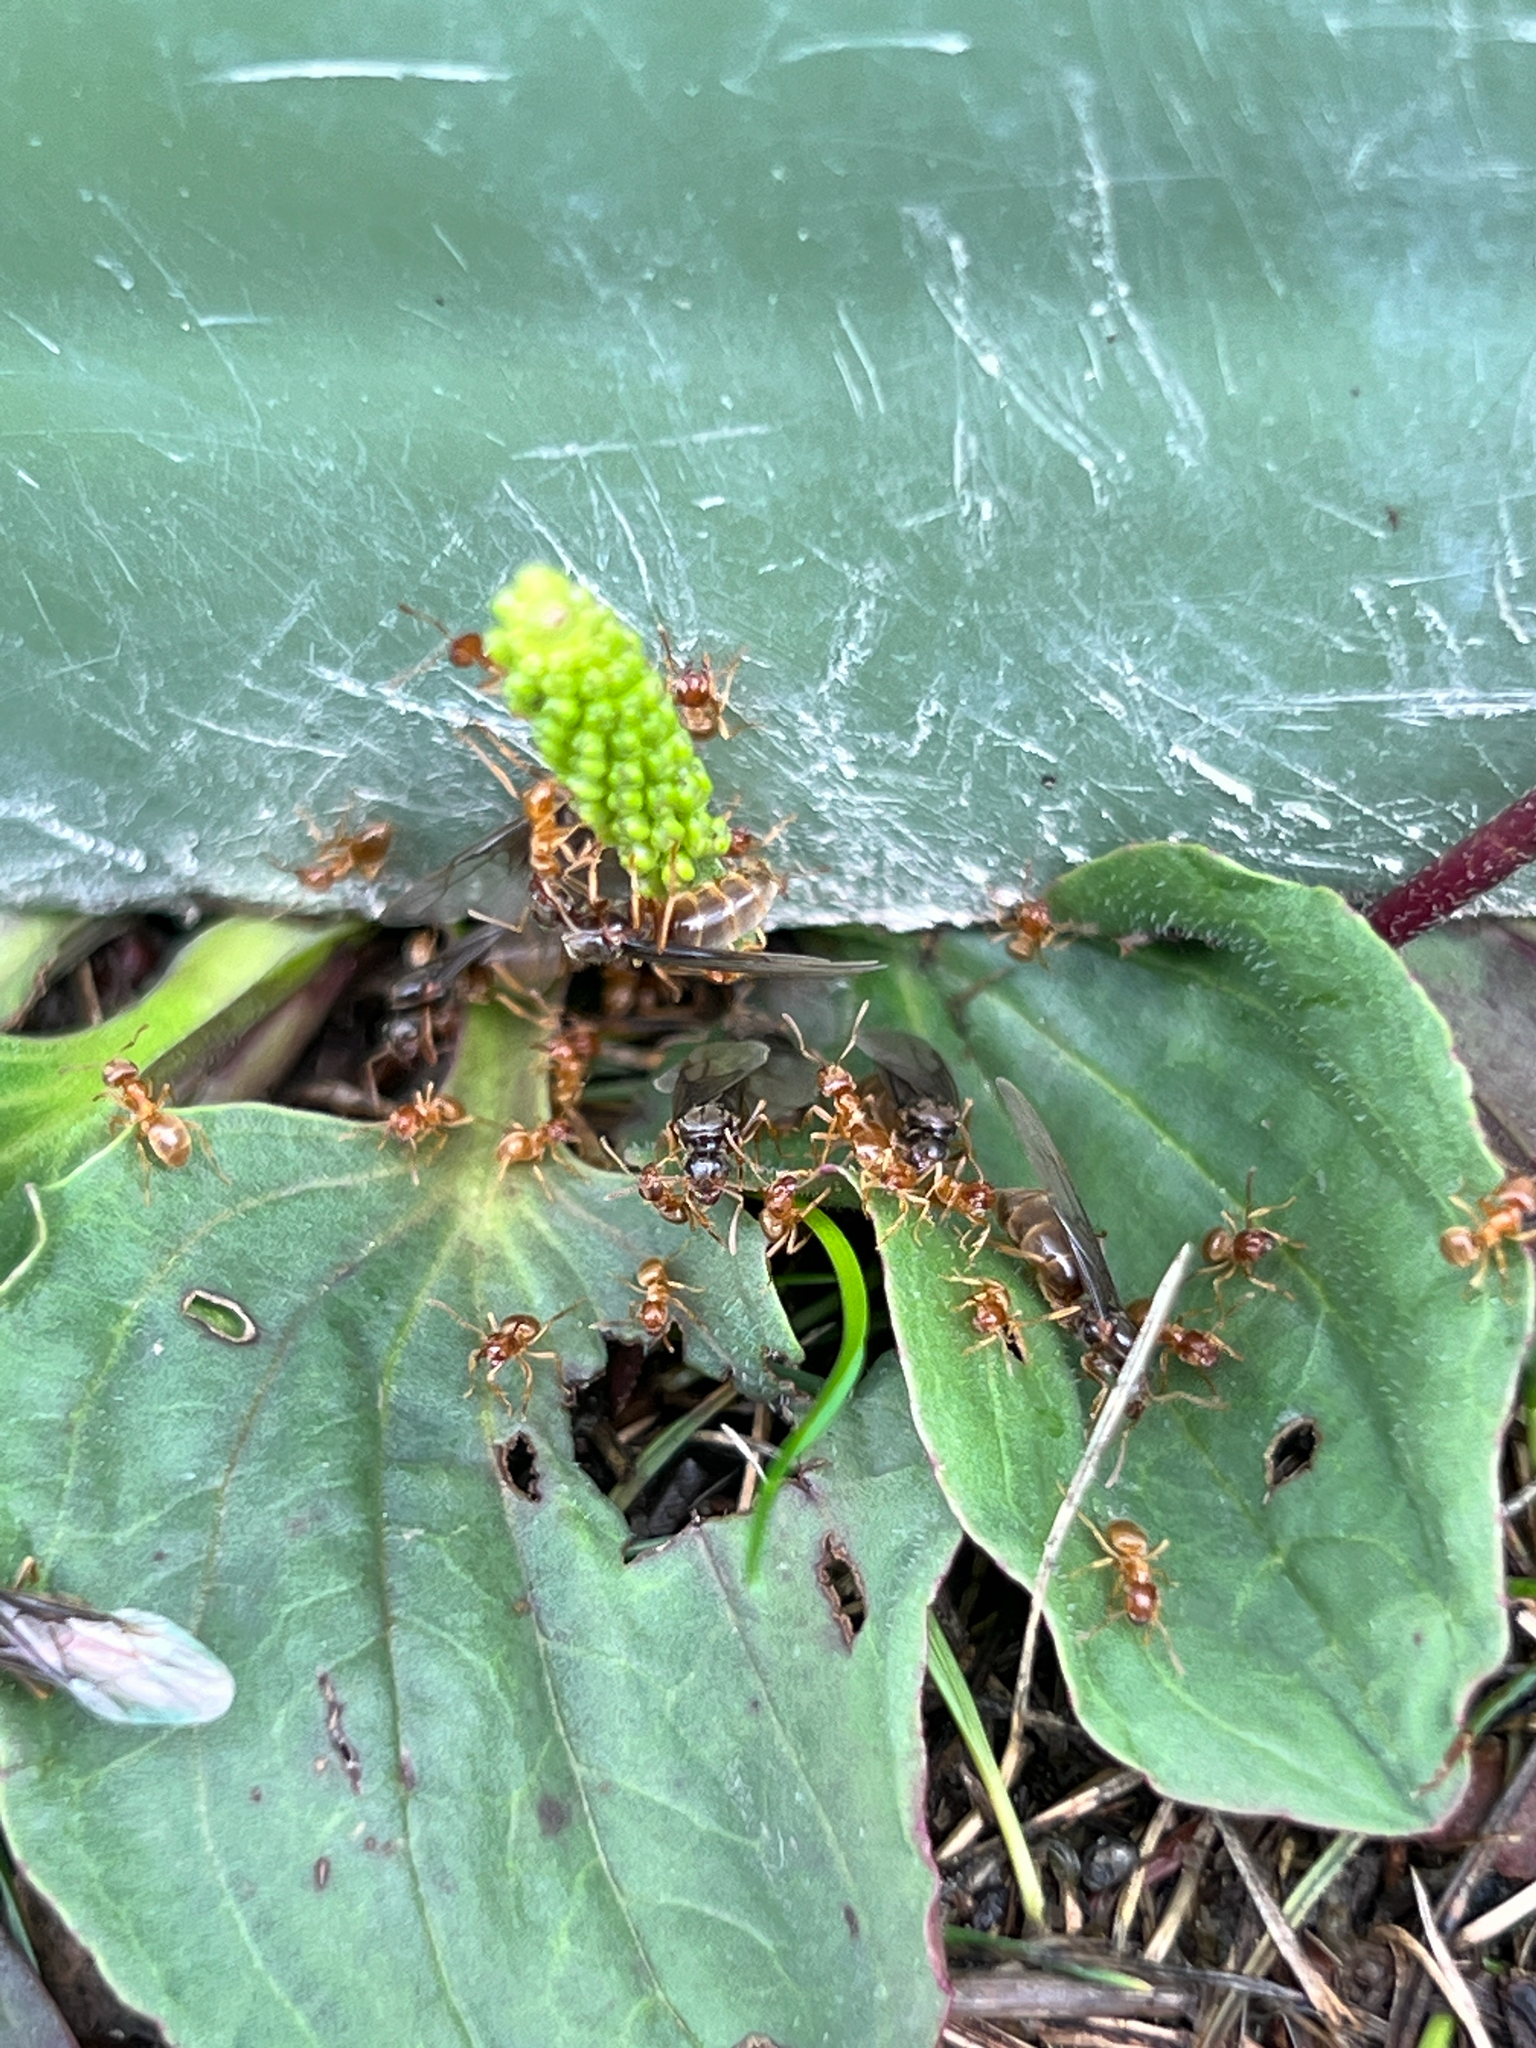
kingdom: Animalia
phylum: Arthropoda
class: Insecta
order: Hymenoptera
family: Formicidae
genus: Lasius
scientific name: Lasius flavus
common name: Blond field ant
